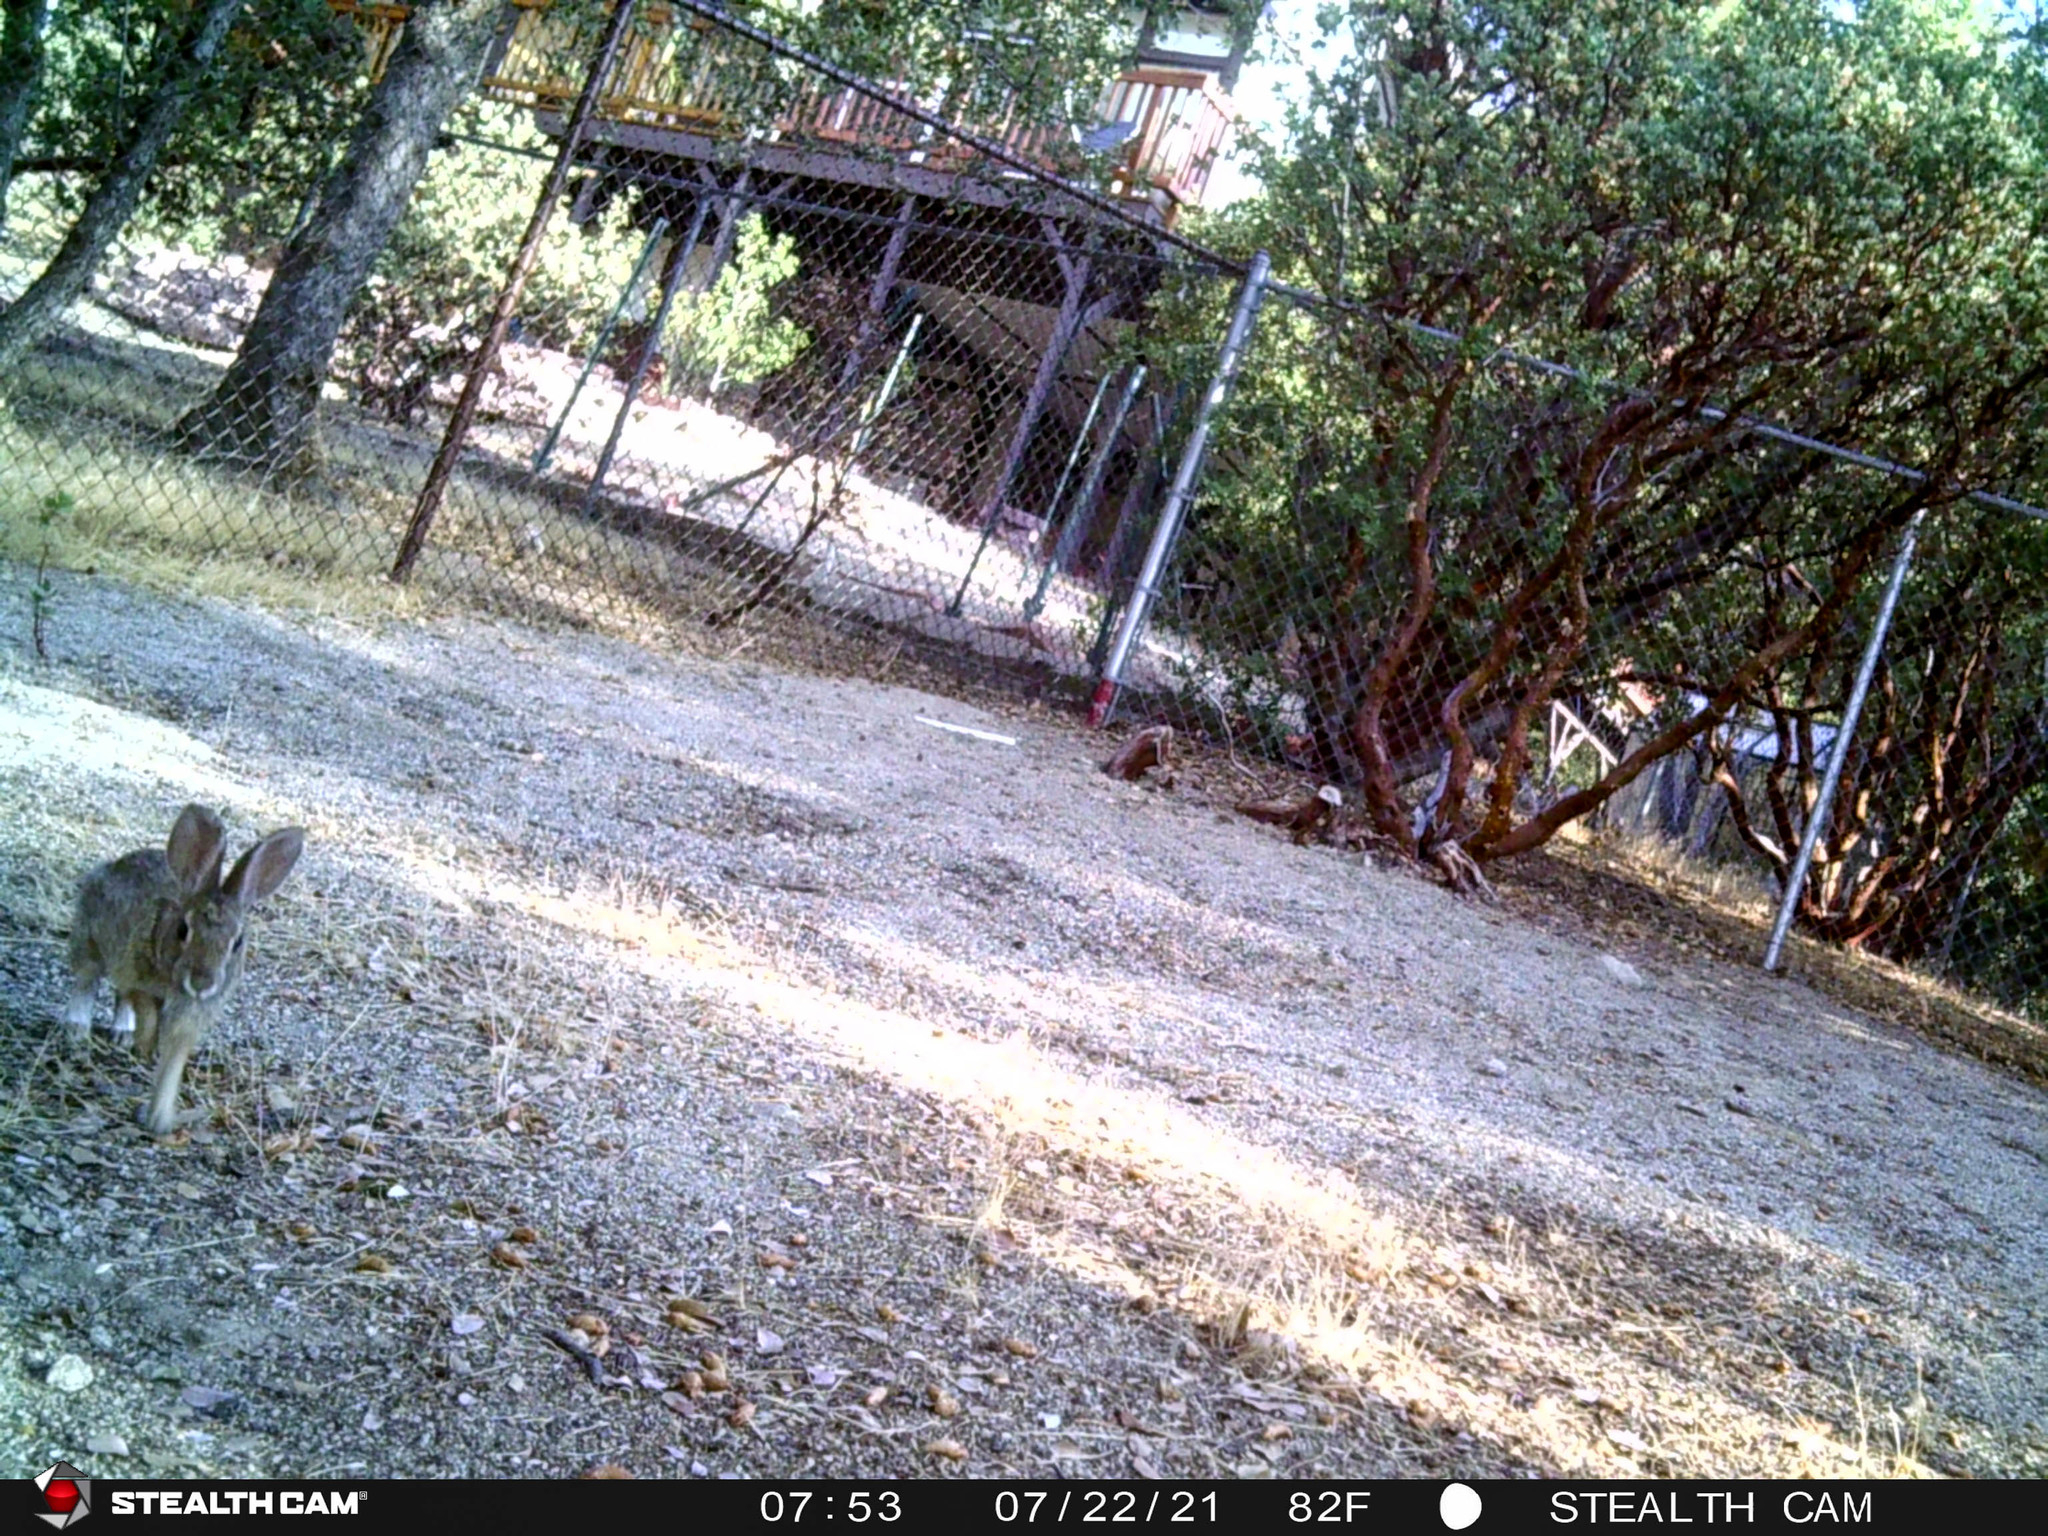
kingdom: Animalia
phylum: Chordata
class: Mammalia
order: Lagomorpha
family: Leporidae
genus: Sylvilagus
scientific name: Sylvilagus audubonii
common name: Desert cottontail
